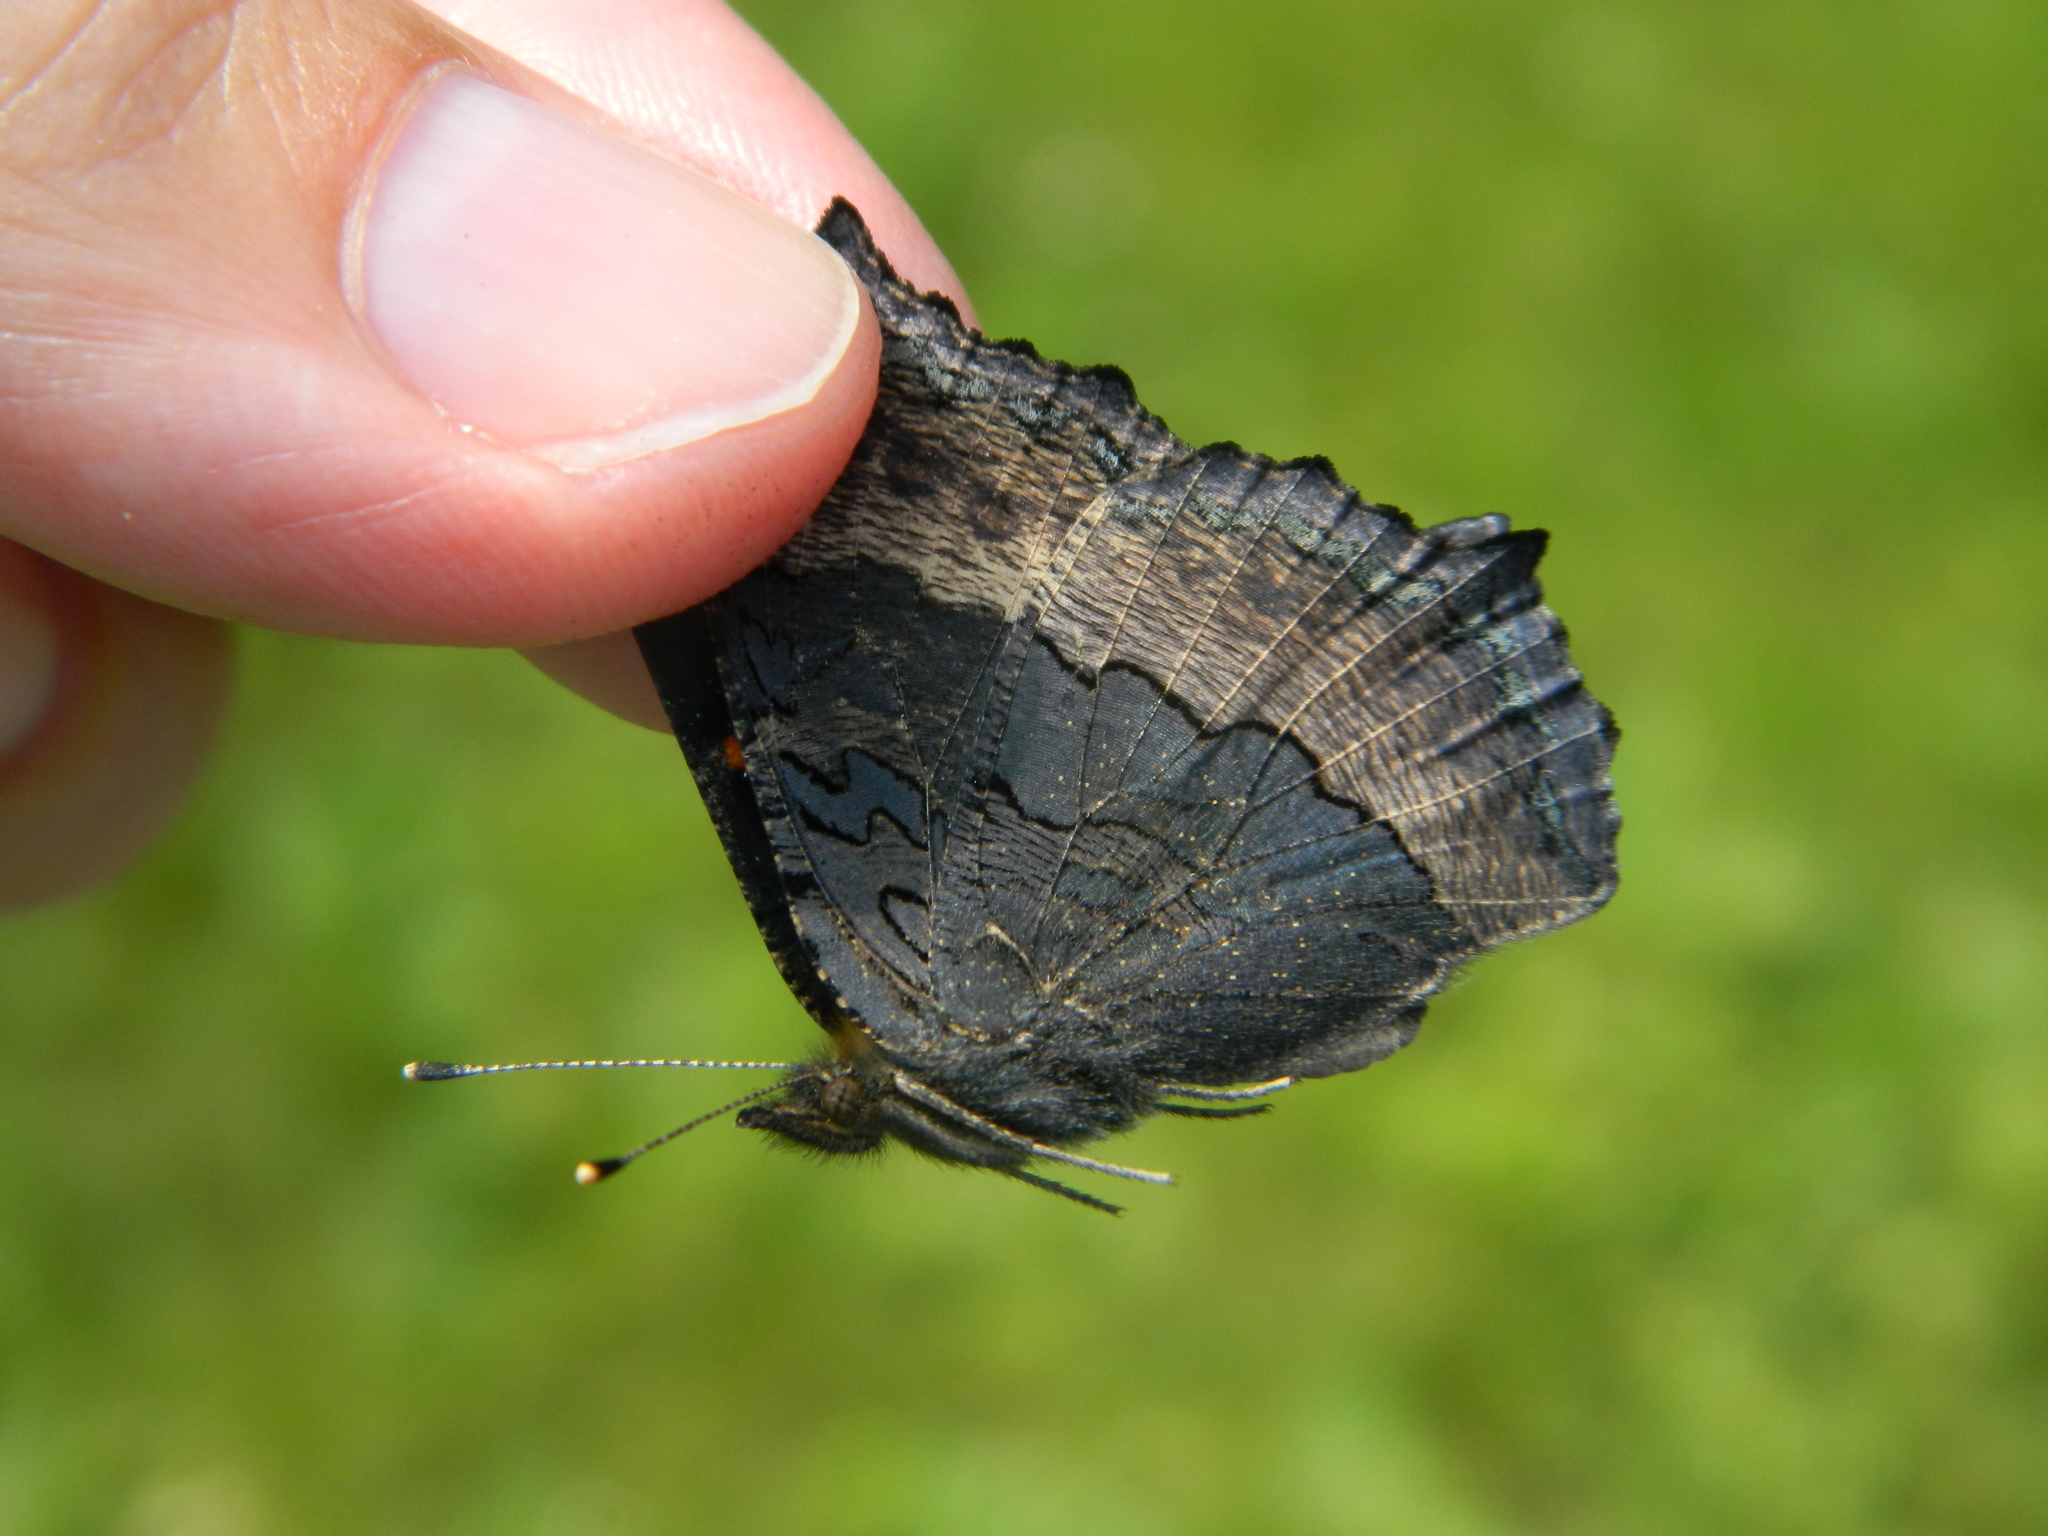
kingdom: Animalia
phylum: Arthropoda
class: Insecta
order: Lepidoptera
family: Nymphalidae
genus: Aglais
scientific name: Aglais milberti
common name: Milbert's tortoiseshell
